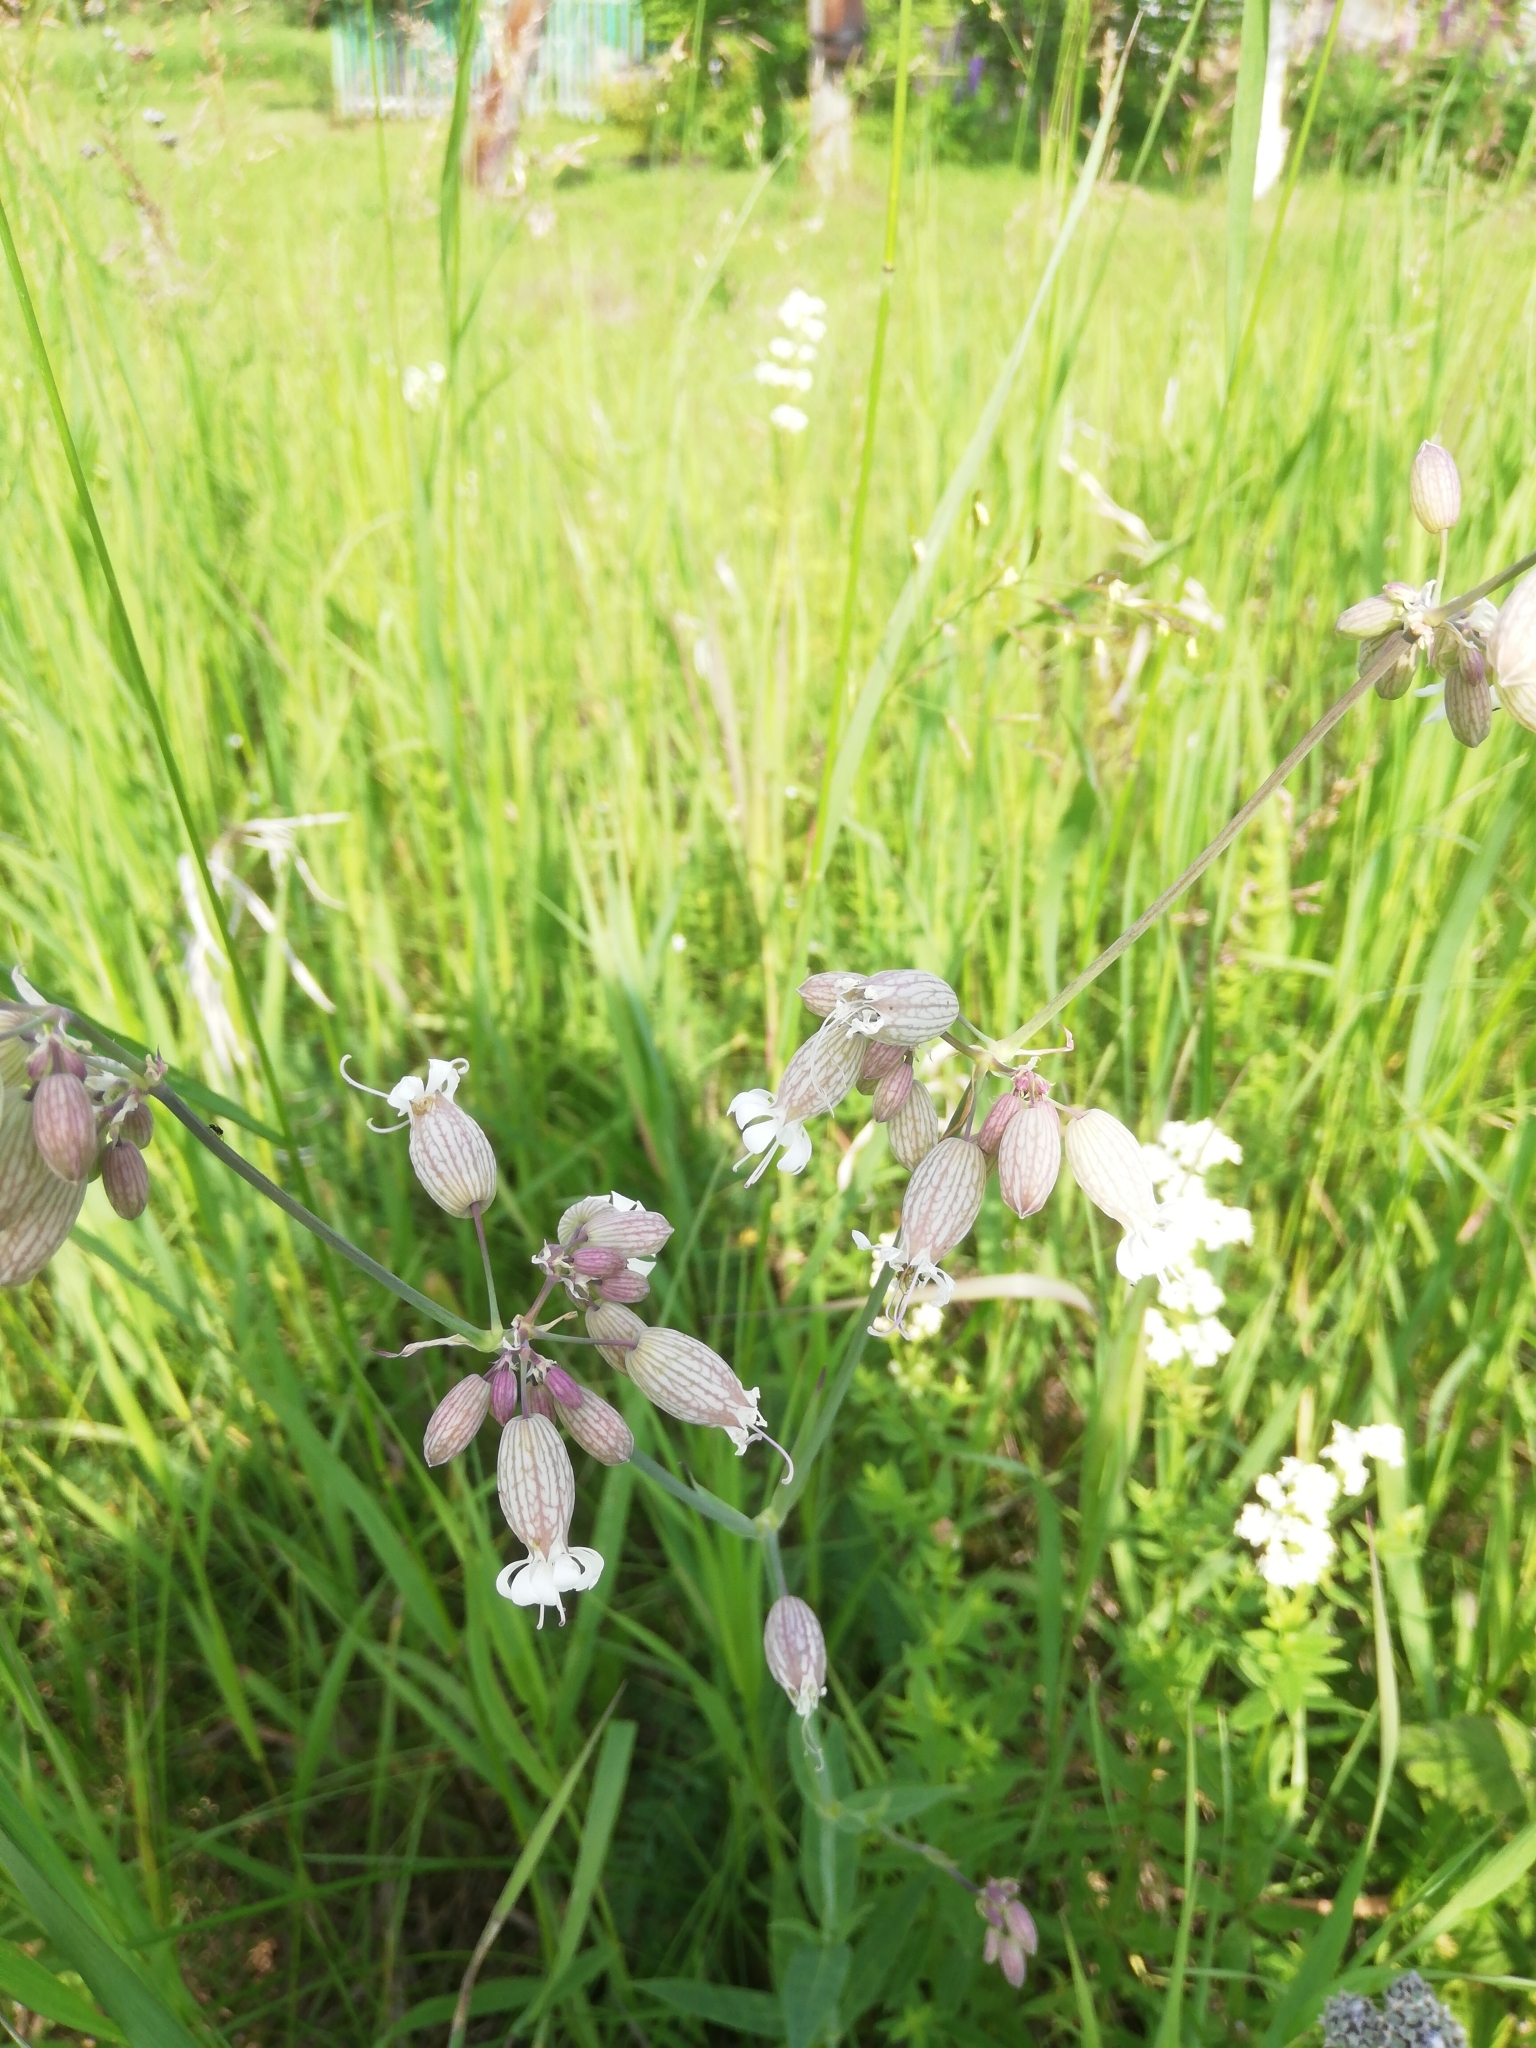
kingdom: Plantae
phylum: Tracheophyta
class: Magnoliopsida
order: Caryophyllales
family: Caryophyllaceae
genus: Silene
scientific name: Silene vulgaris
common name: Bladder campion
